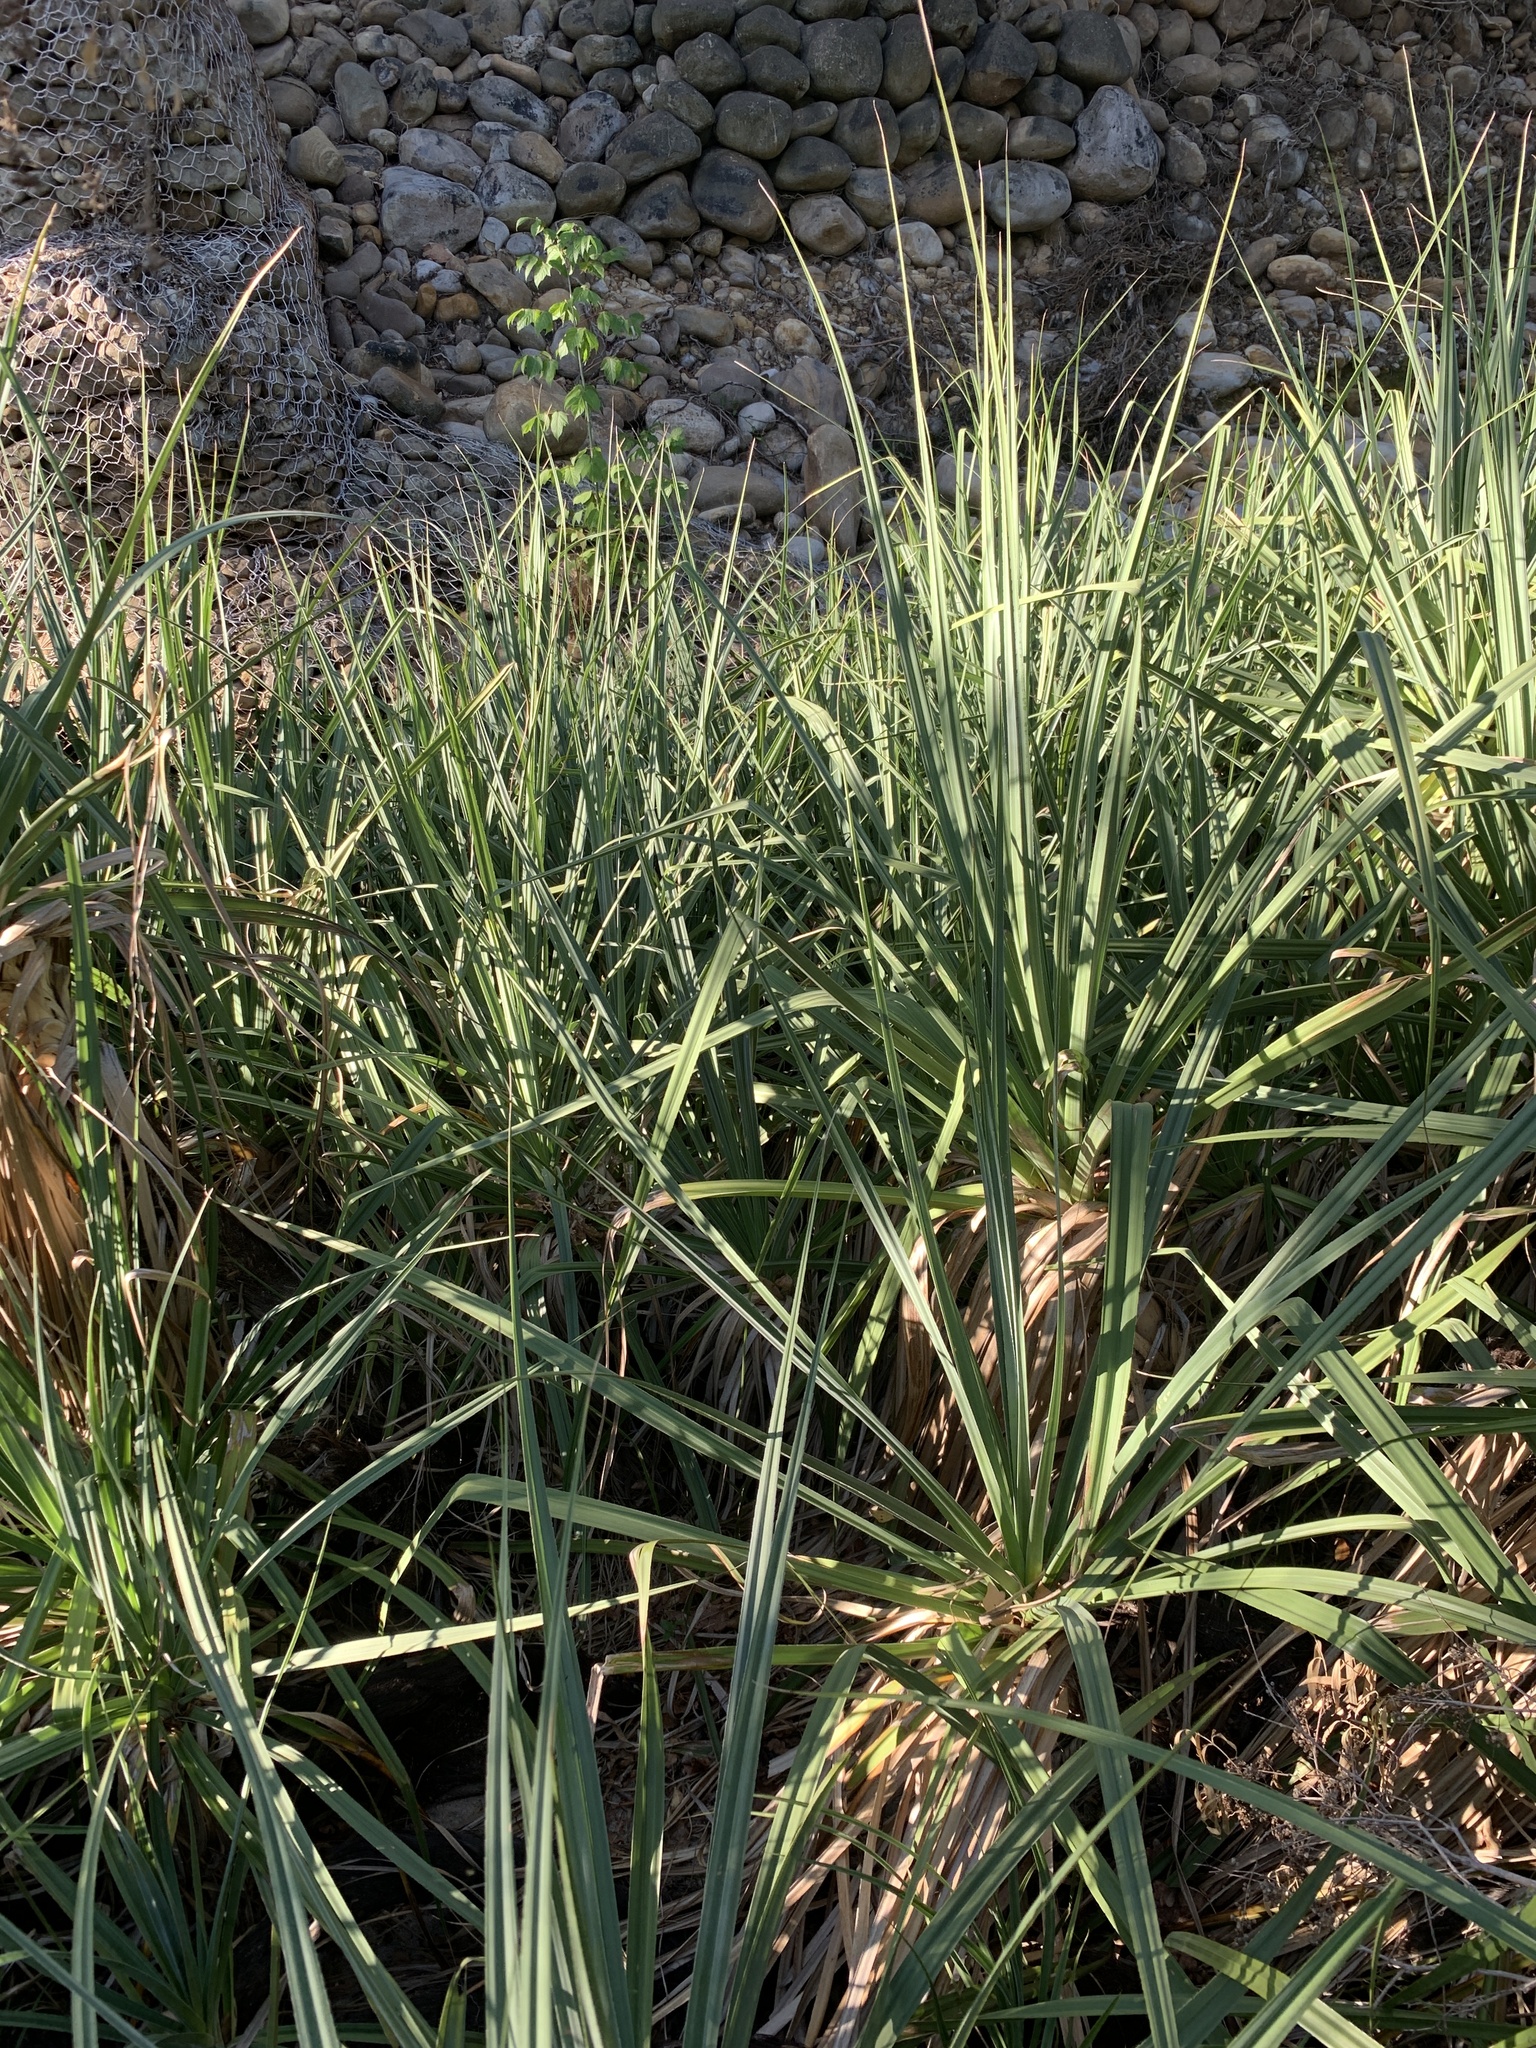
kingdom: Plantae
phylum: Tracheophyta
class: Liliopsida
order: Poales
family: Thurniaceae
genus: Prionium
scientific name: Prionium serratum
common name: Palmiet
